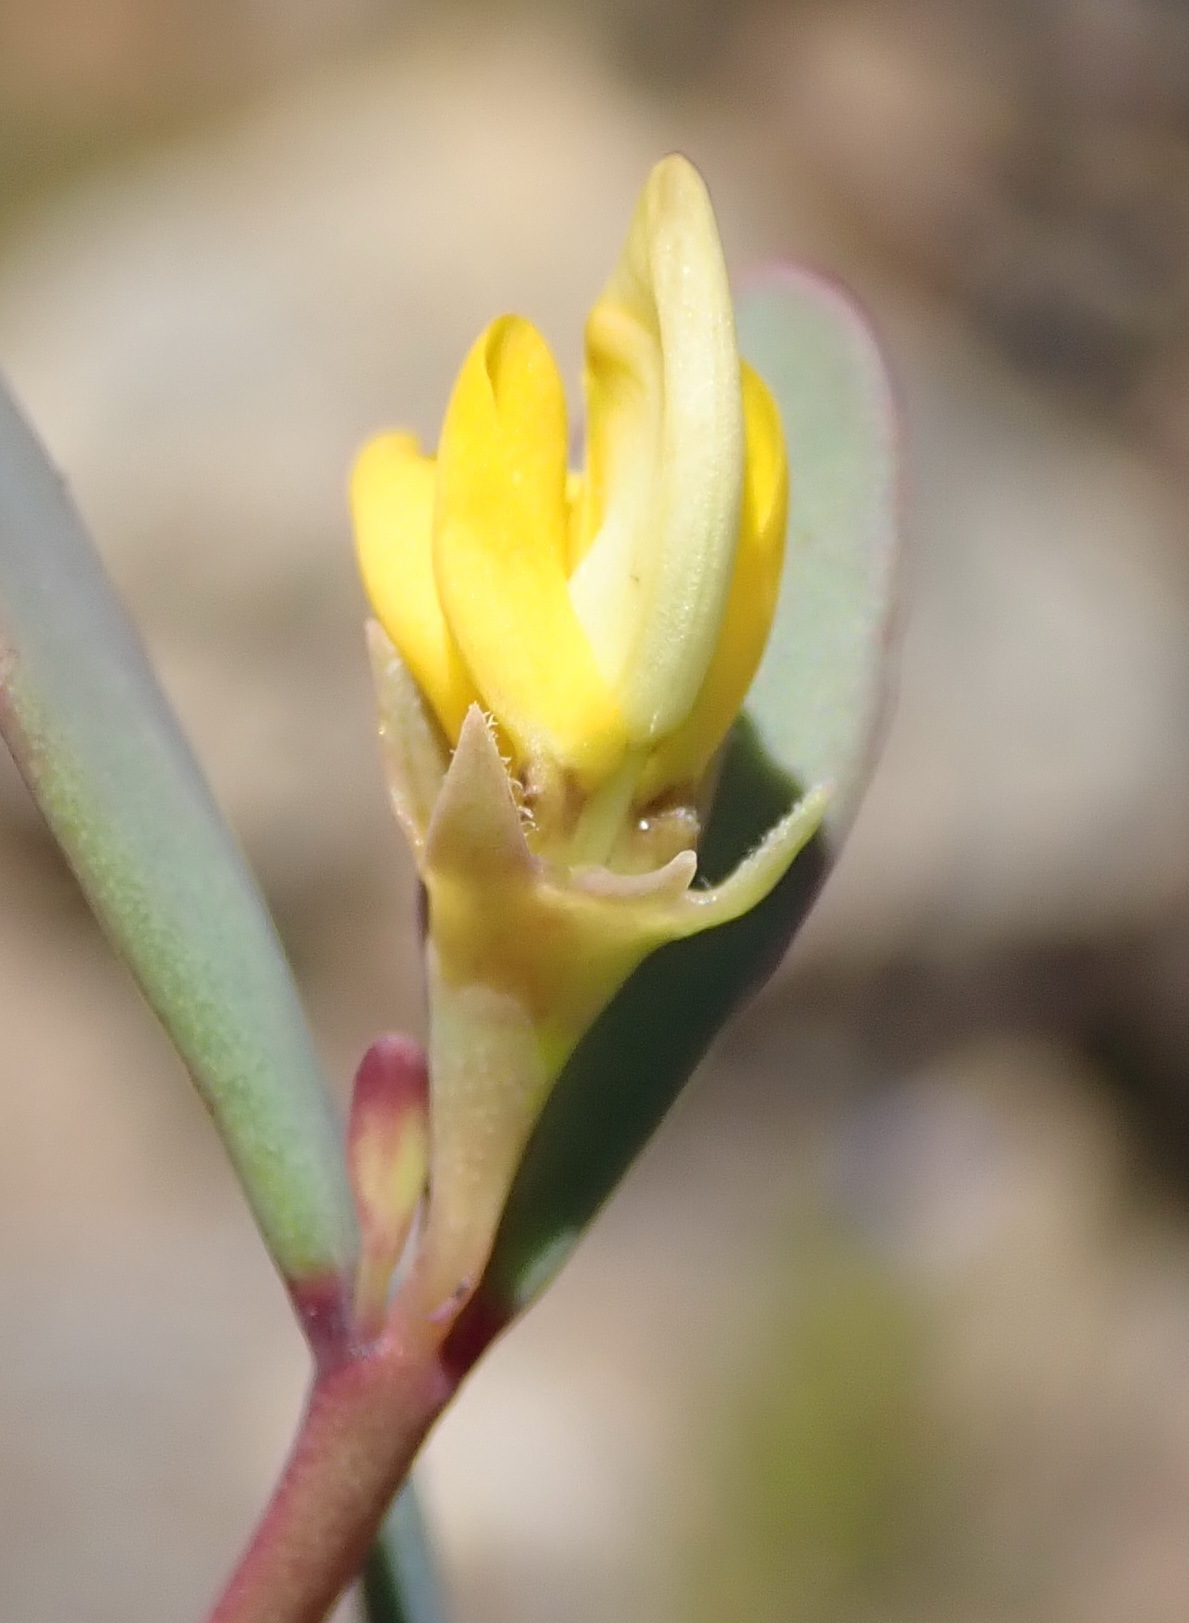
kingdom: Plantae
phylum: Tracheophyta
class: Magnoliopsida
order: Fabales
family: Fabaceae
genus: Rafnia
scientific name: Rafnia capensis
